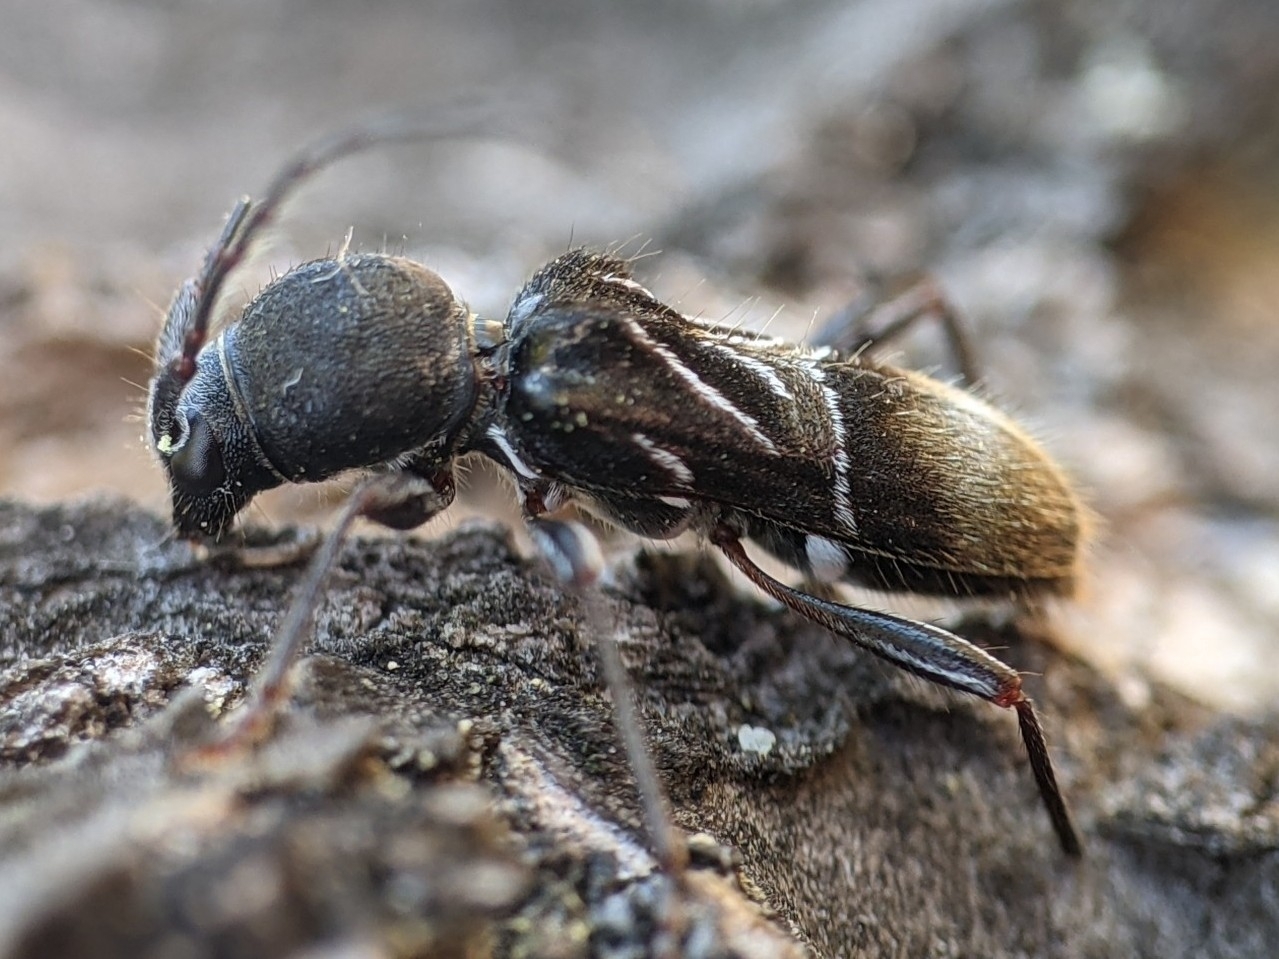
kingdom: Animalia
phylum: Arthropoda
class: Insecta
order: Coleoptera
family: Cerambycidae
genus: Cyrtophorus
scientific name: Cyrtophorus verrucosus
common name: Ant-like longhorn beetle
